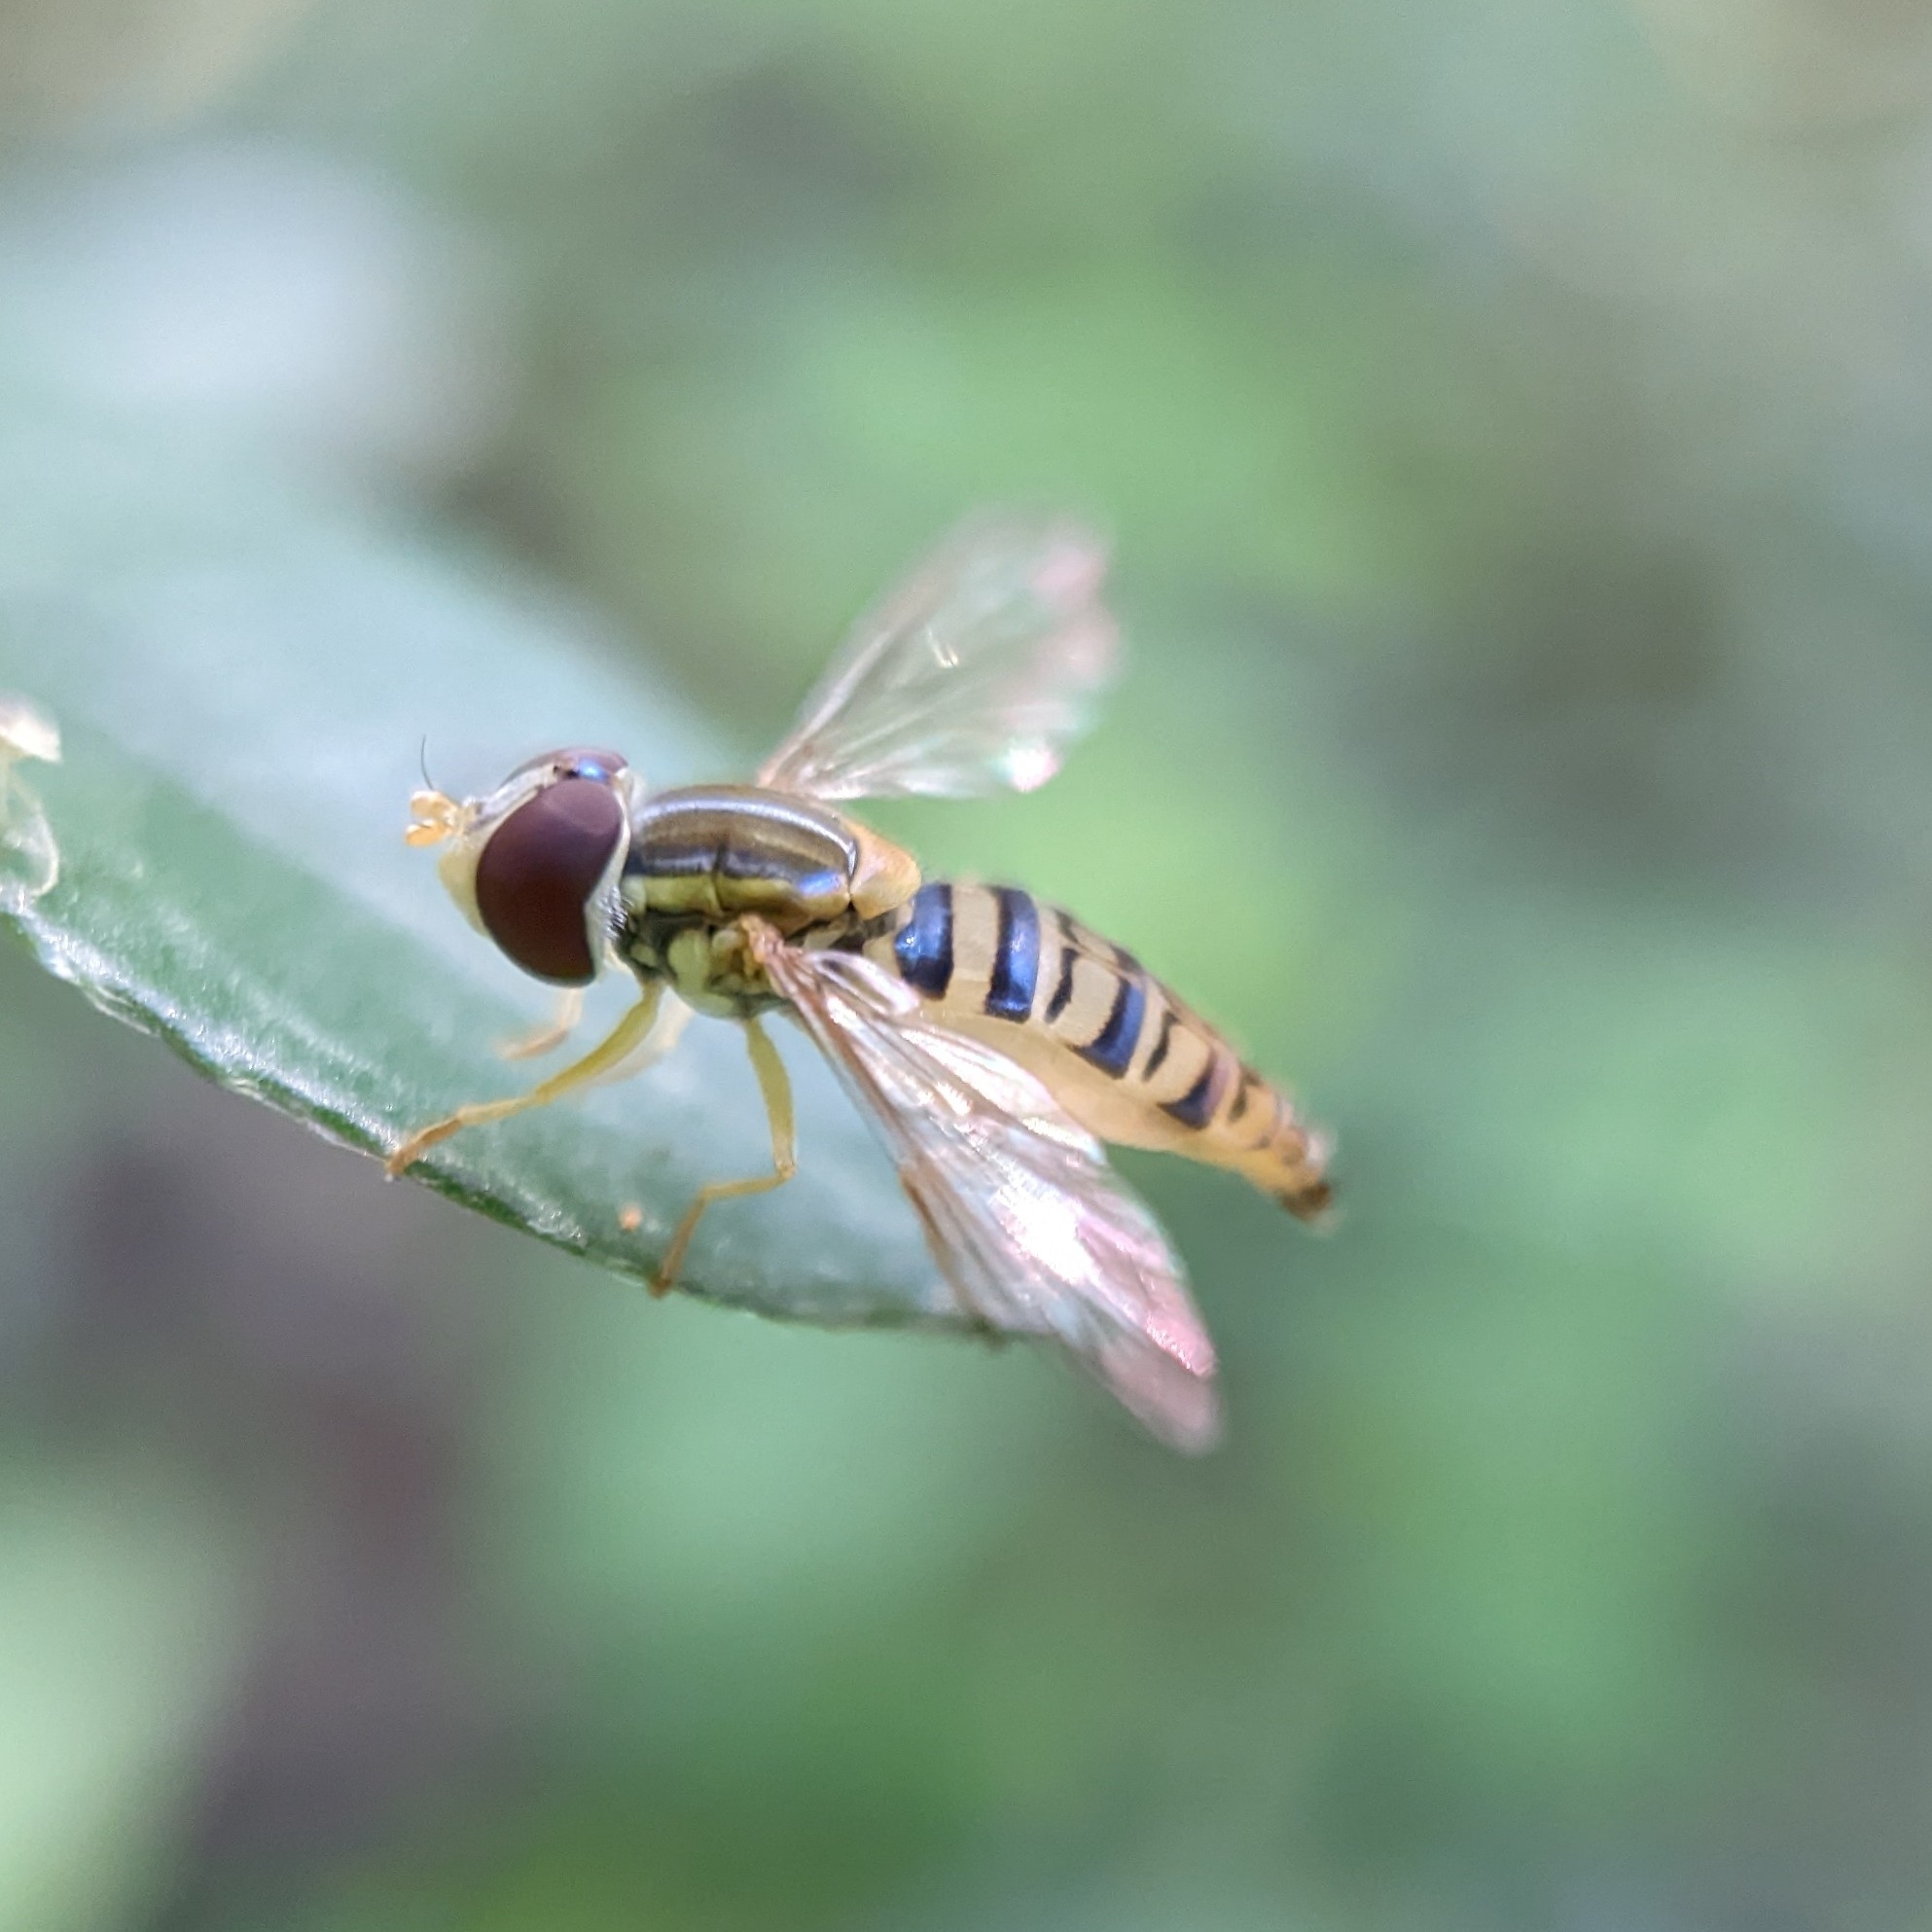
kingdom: Animalia
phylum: Arthropoda
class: Insecta
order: Diptera
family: Syrphidae
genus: Toxomerus
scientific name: Toxomerus politus
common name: Maize calligrapher
